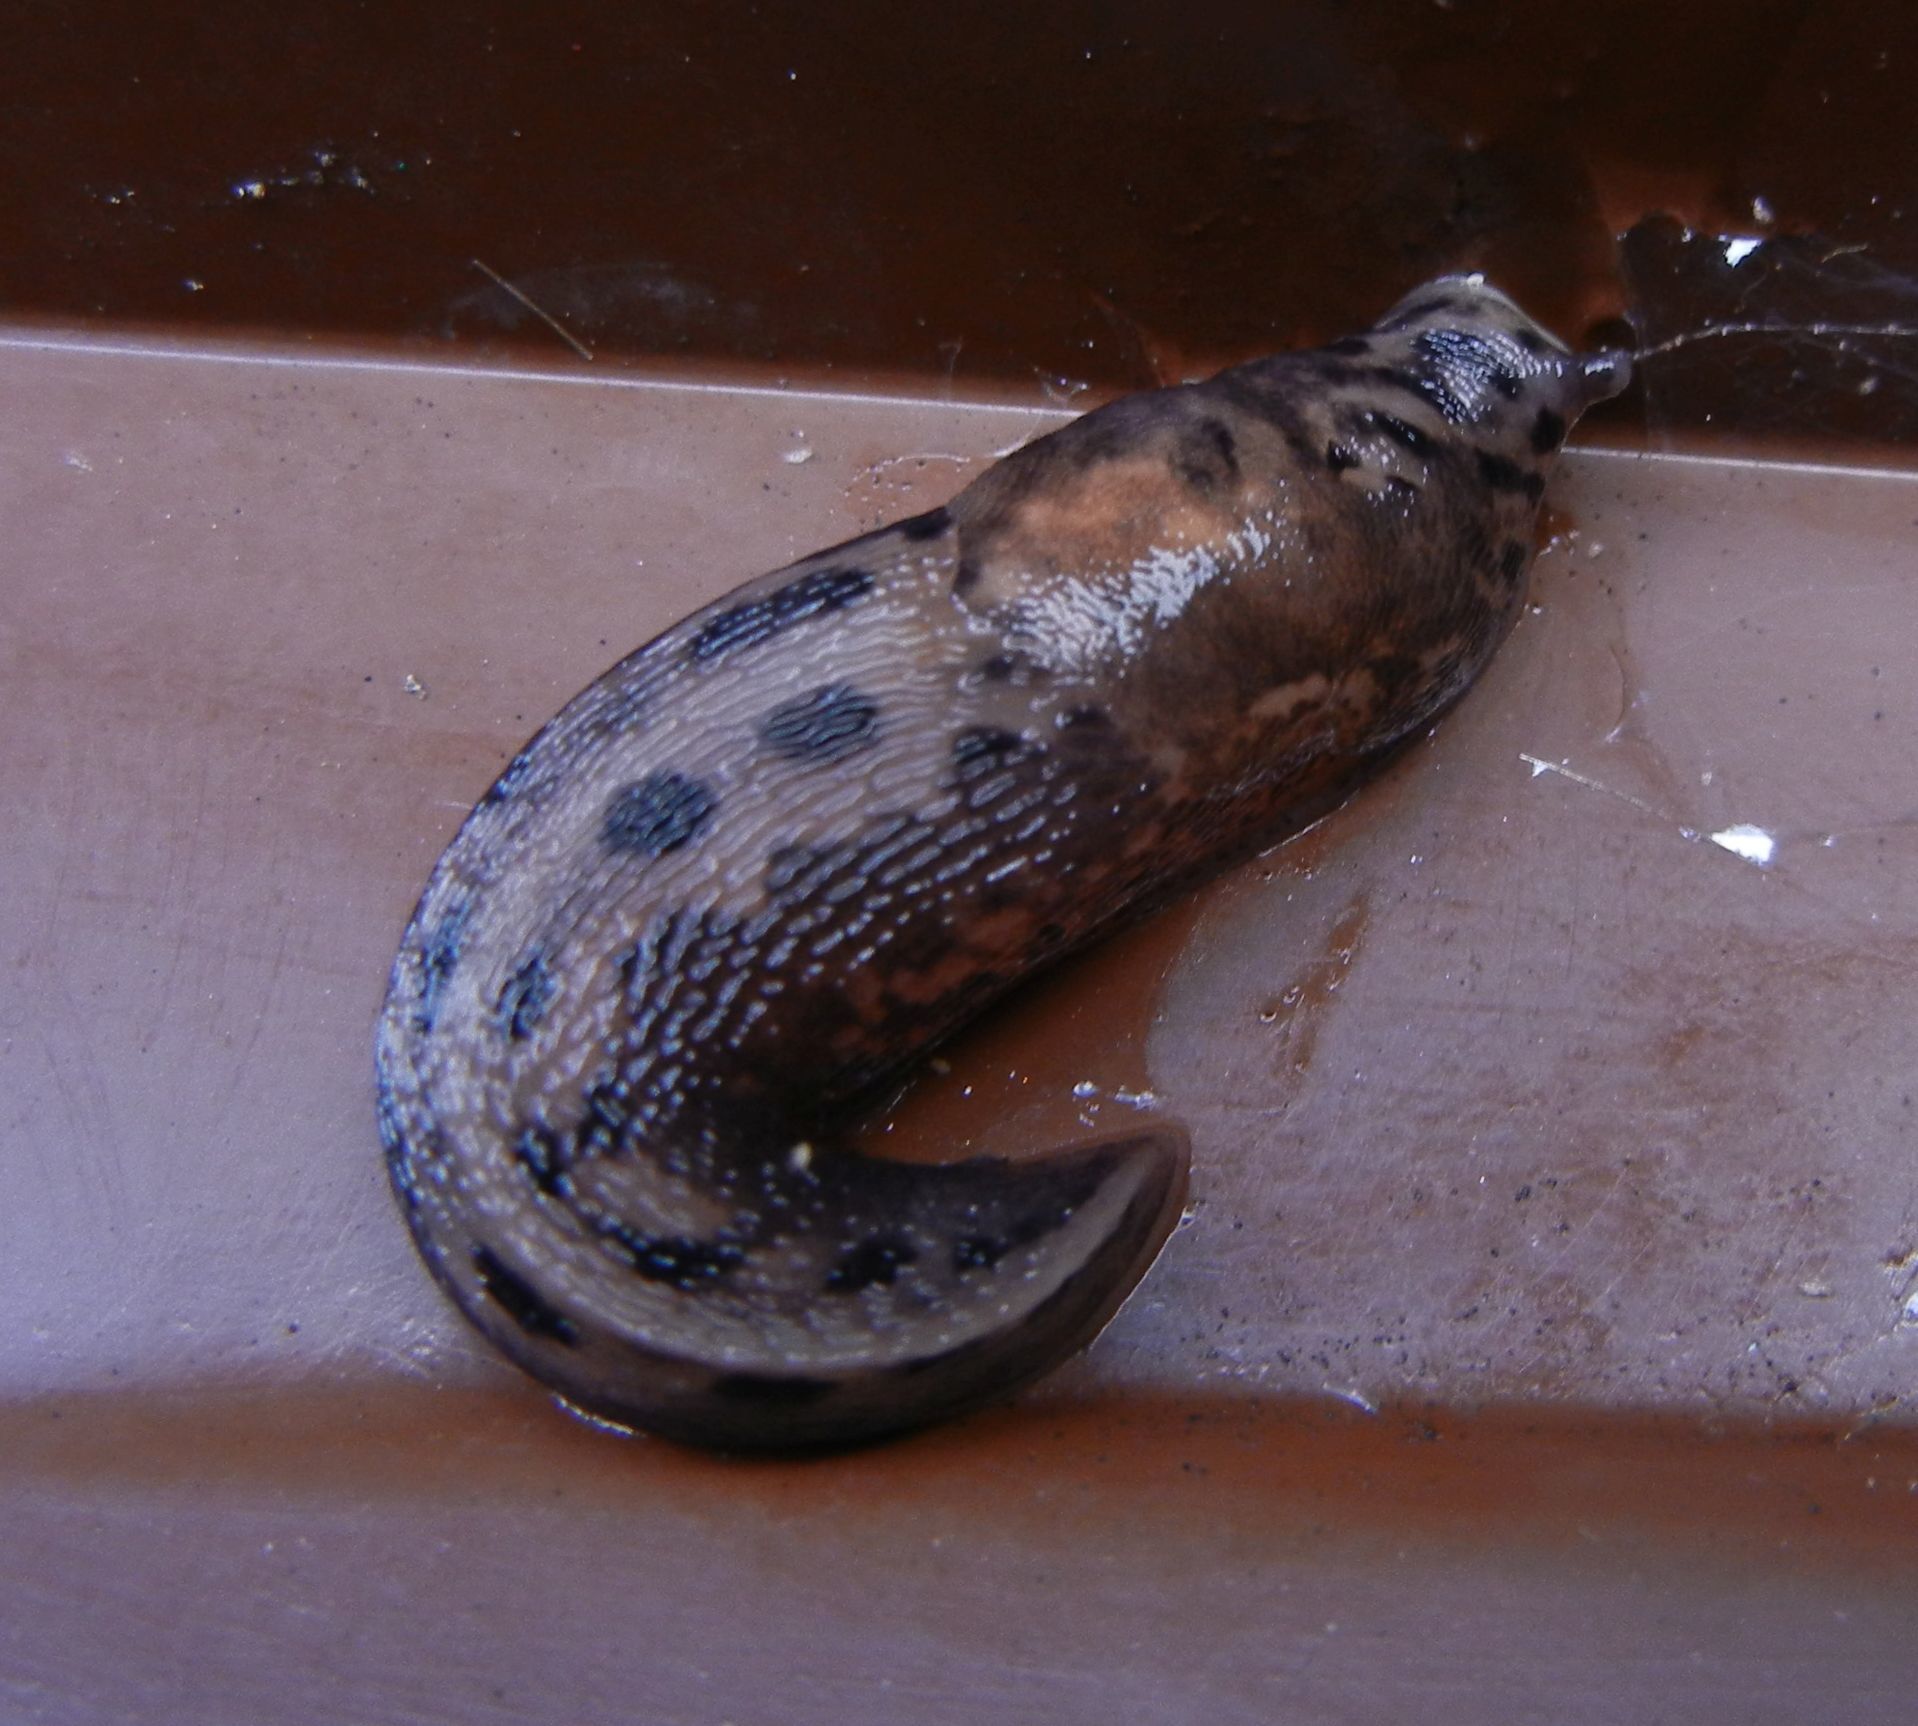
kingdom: Animalia
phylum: Mollusca
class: Gastropoda
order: Stylommatophora
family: Limacidae
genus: Limax
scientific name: Limax maximus
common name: Great grey slug
